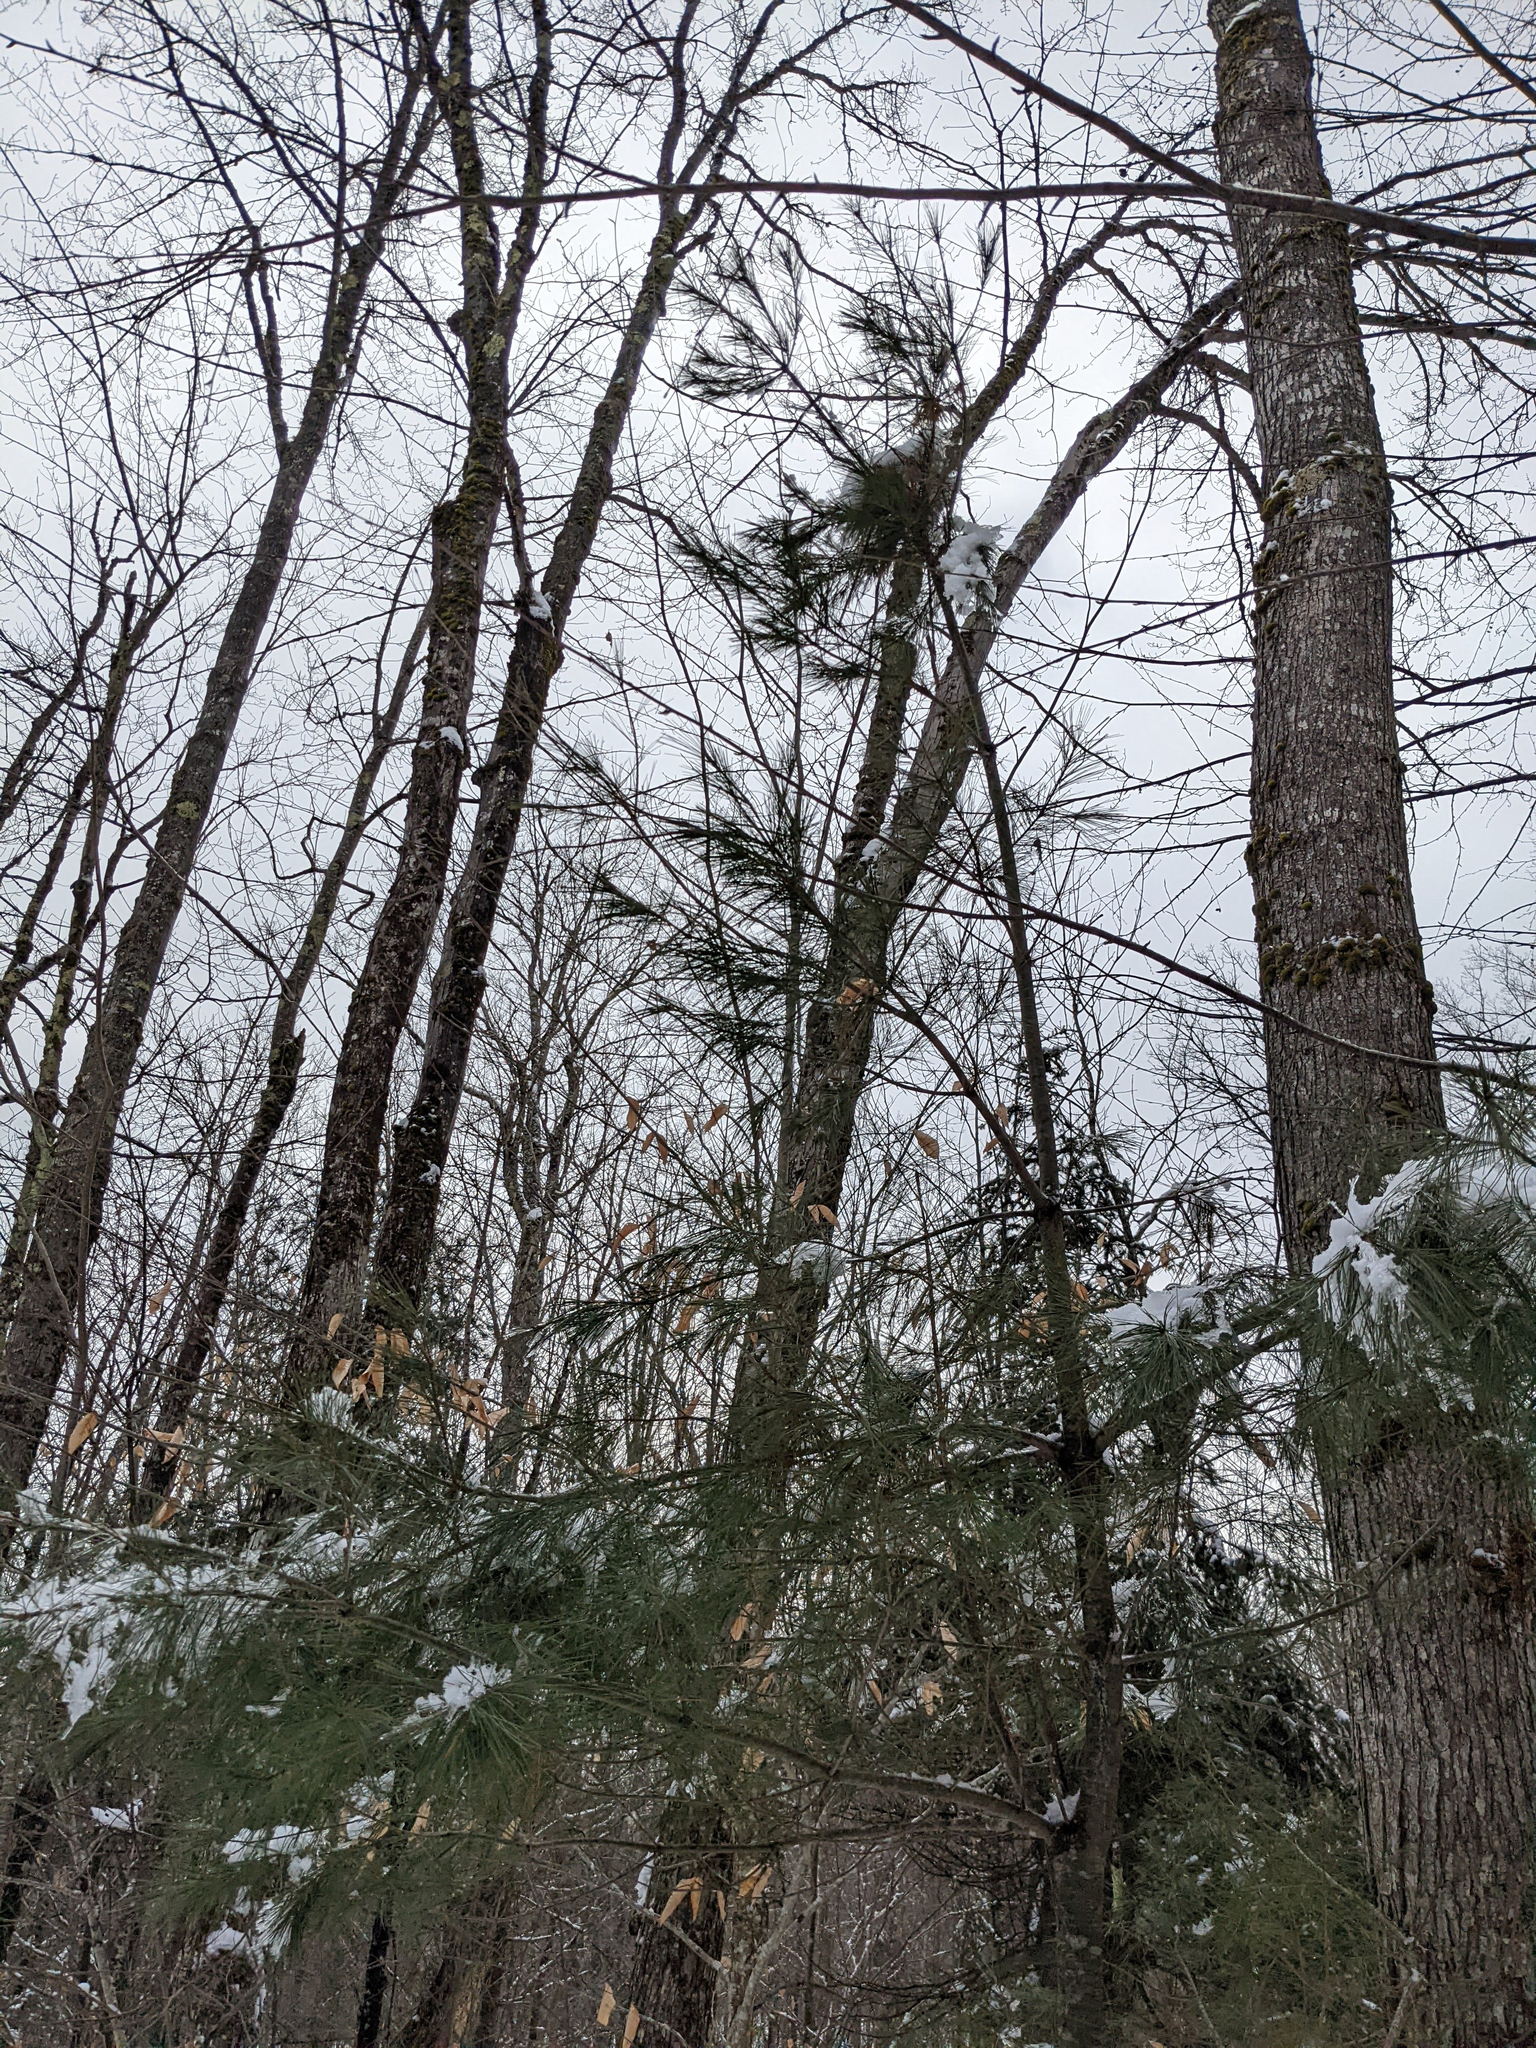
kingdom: Plantae
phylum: Tracheophyta
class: Pinopsida
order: Pinales
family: Pinaceae
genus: Pinus
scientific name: Pinus strobus
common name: Weymouth pine
